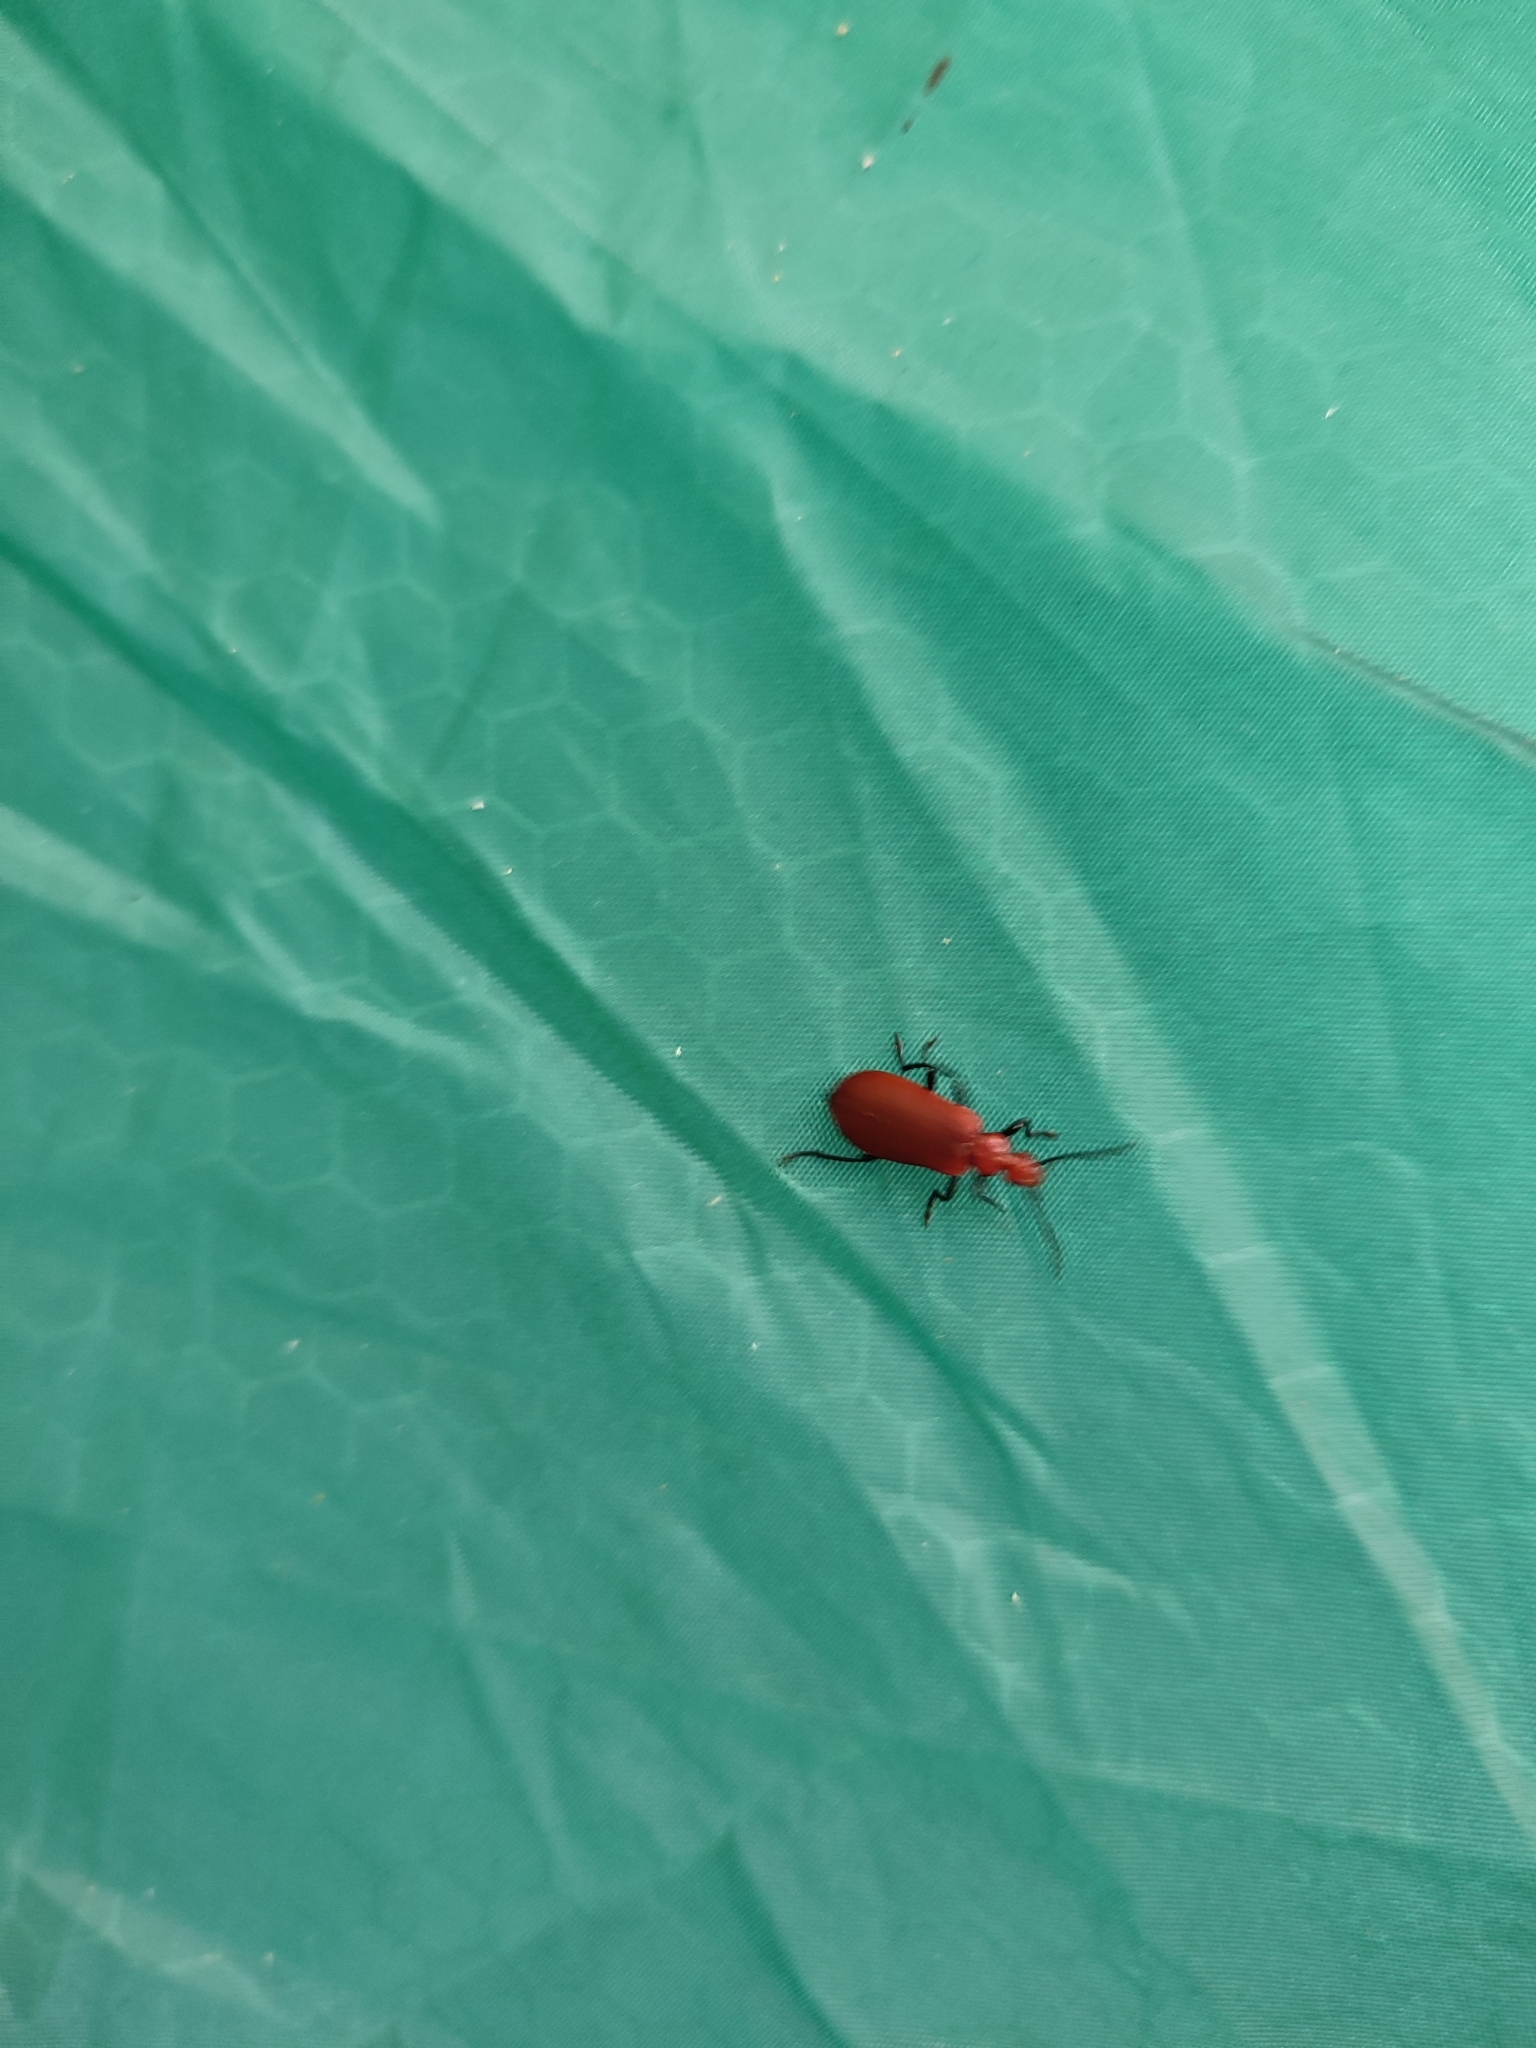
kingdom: Animalia
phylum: Arthropoda
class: Insecta
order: Coleoptera
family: Pyrochroidae
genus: Pyrochroa
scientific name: Pyrochroa serraticornis
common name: Red-headed cardinal beetle
